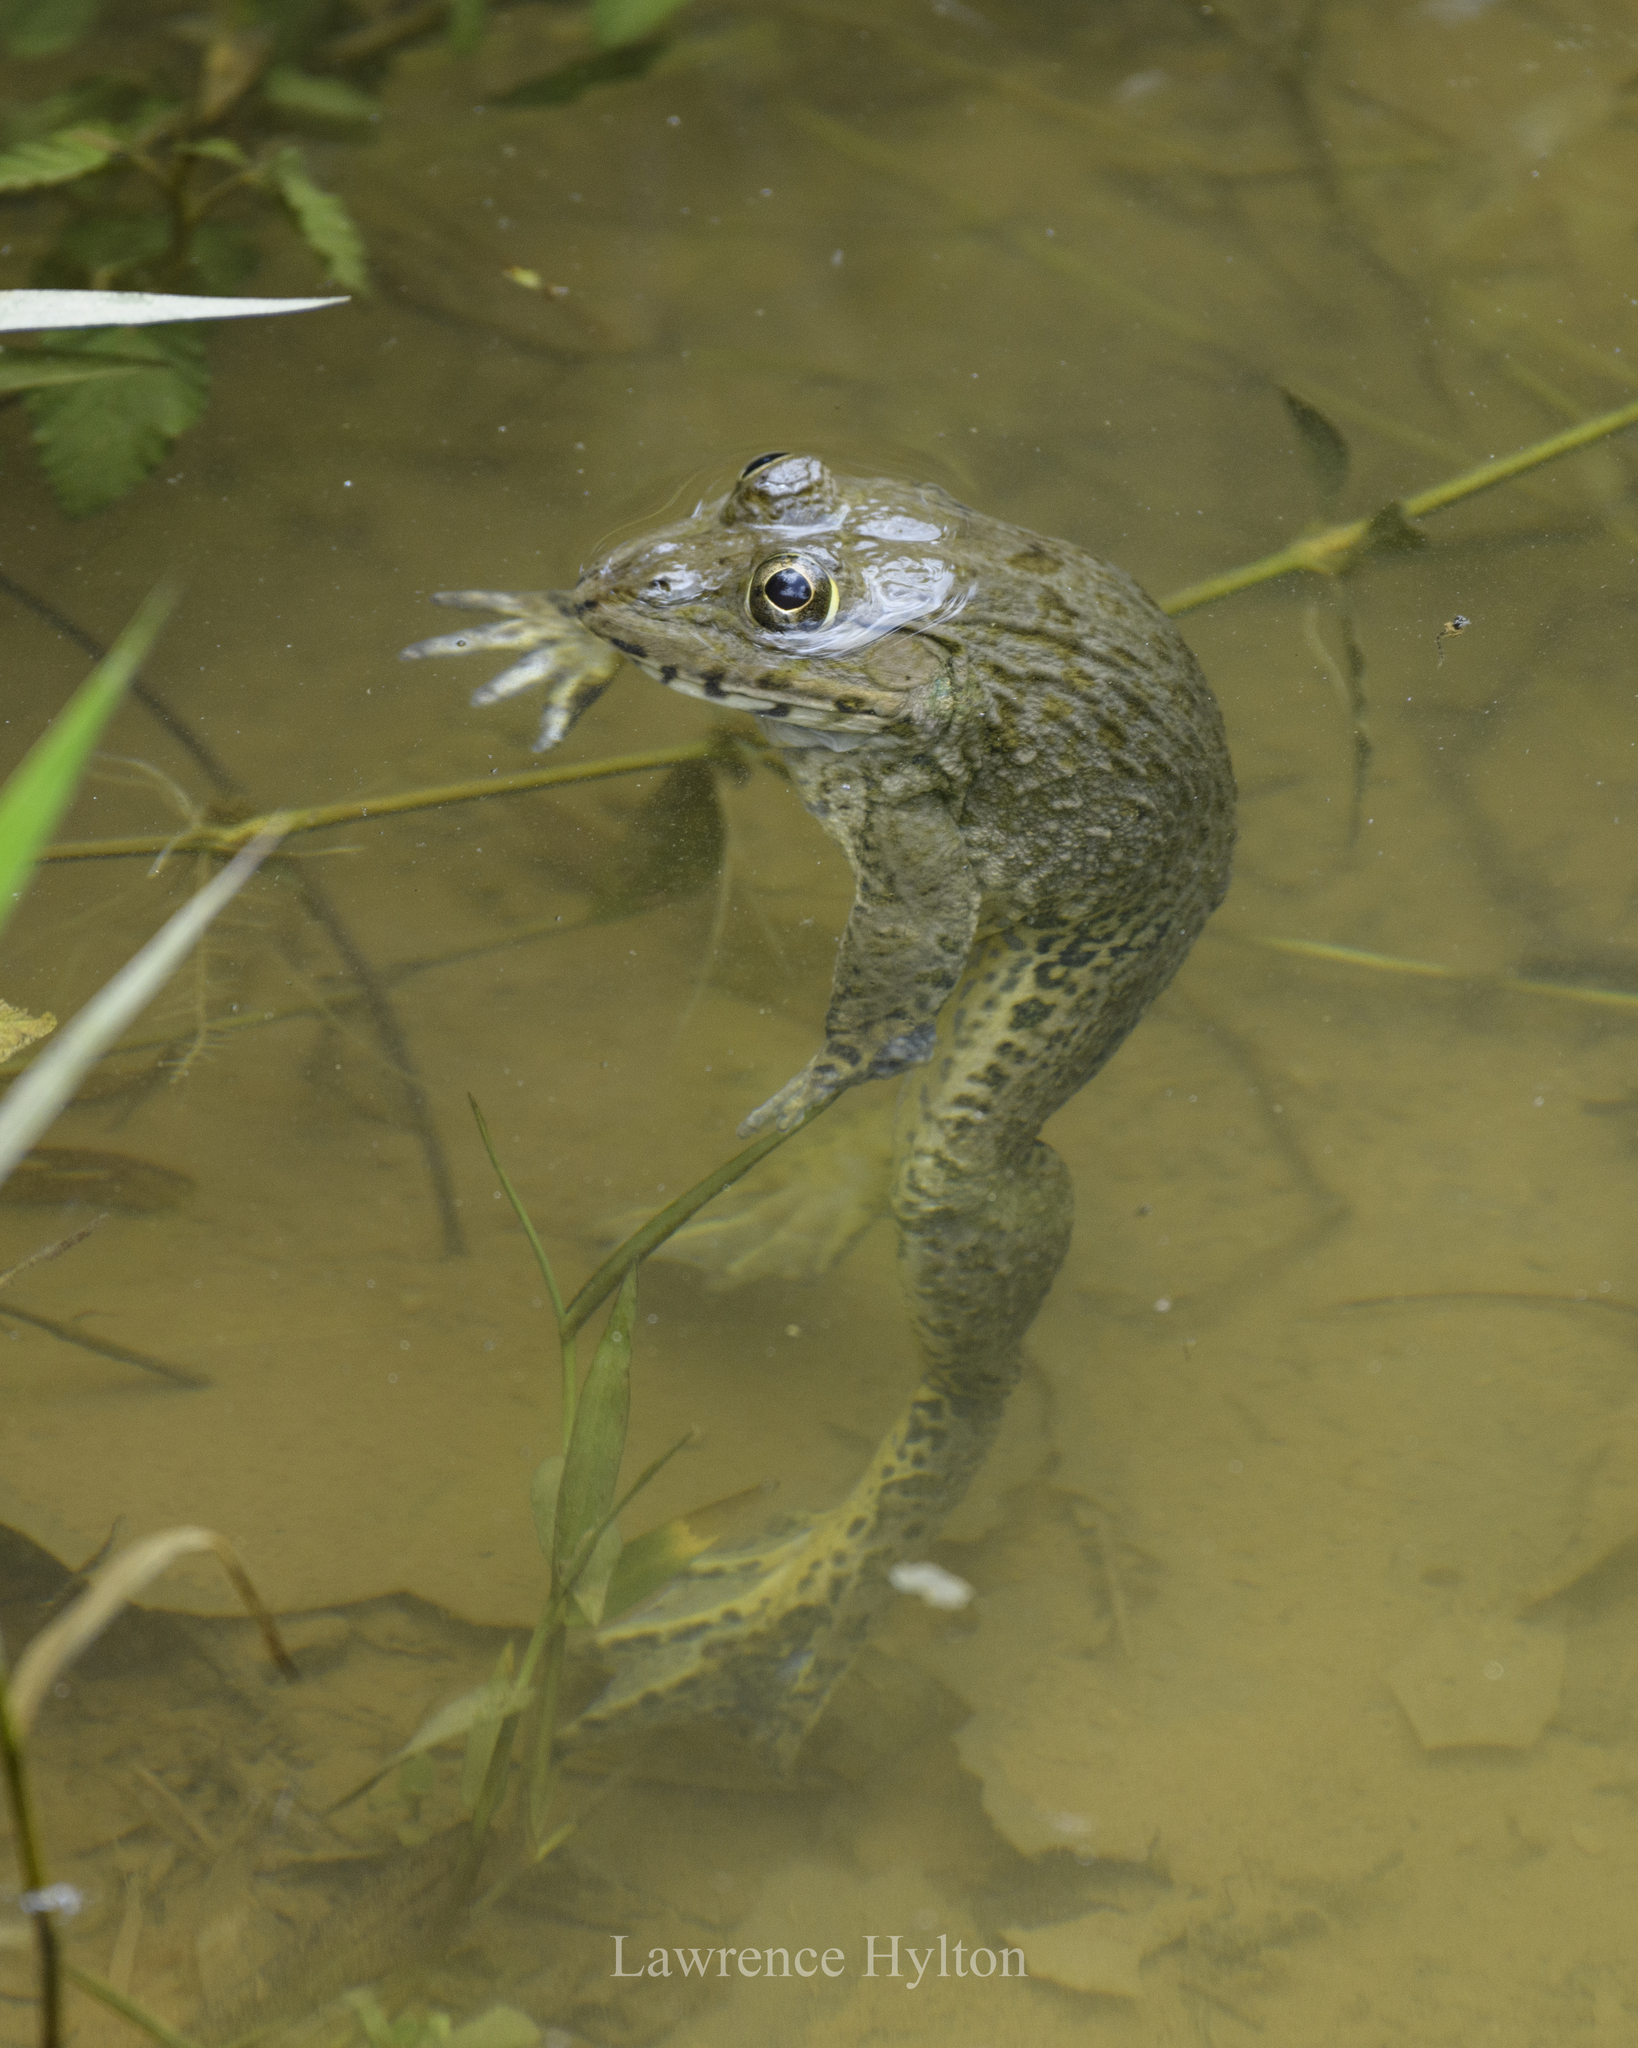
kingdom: Animalia
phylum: Chordata
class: Amphibia
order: Anura
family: Dicroglossidae
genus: Hoplobatrachus
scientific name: Hoplobatrachus rugulosus
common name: Chinese edible frog
